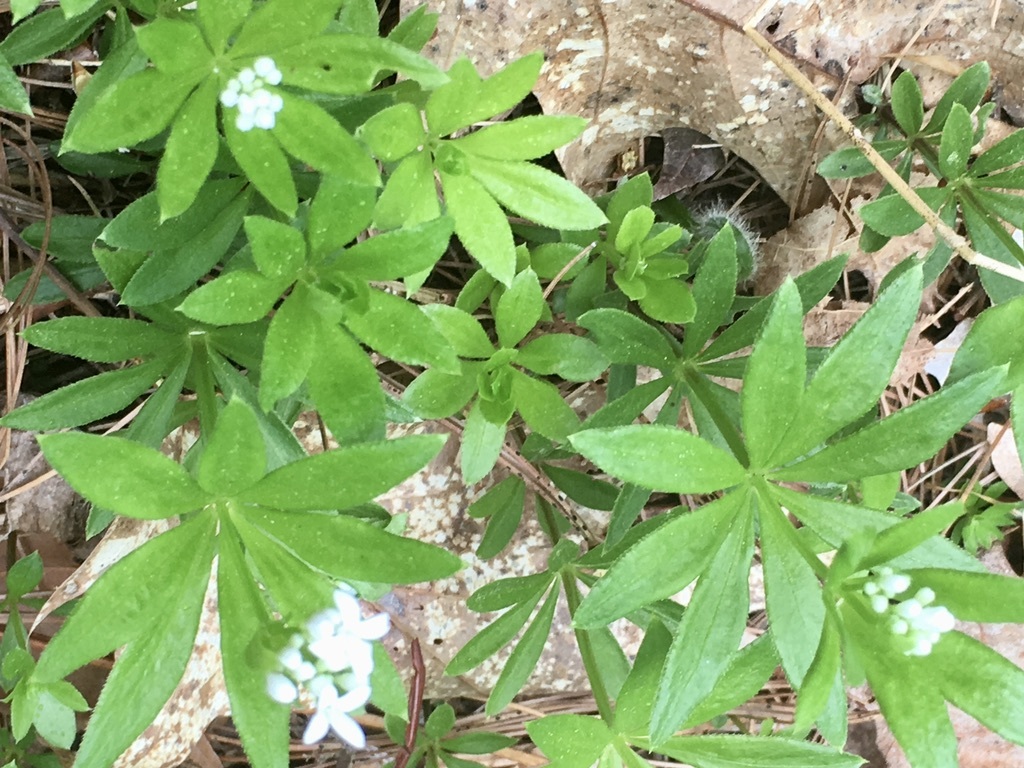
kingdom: Plantae
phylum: Tracheophyta
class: Magnoliopsida
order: Gentianales
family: Rubiaceae
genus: Galium
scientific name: Galium odoratum
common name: Sweet woodruff
